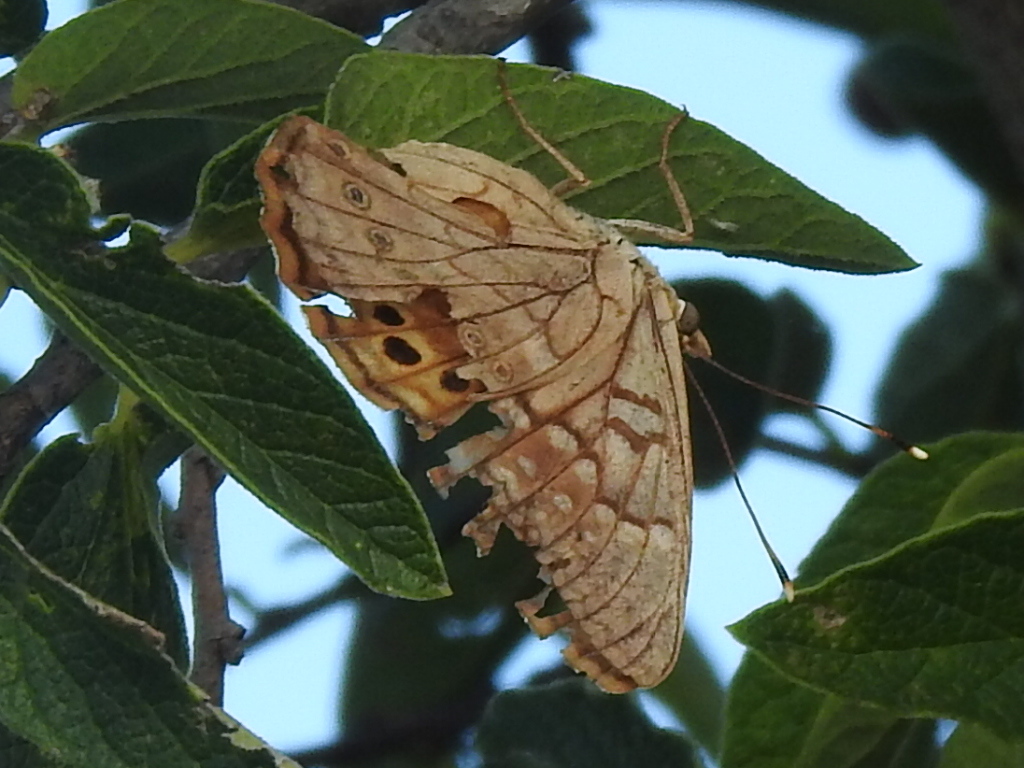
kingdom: Animalia
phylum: Arthropoda
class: Insecta
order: Lepidoptera
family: Nymphalidae
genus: Asterocampa
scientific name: Asterocampa clyton
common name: Tawny emperor
